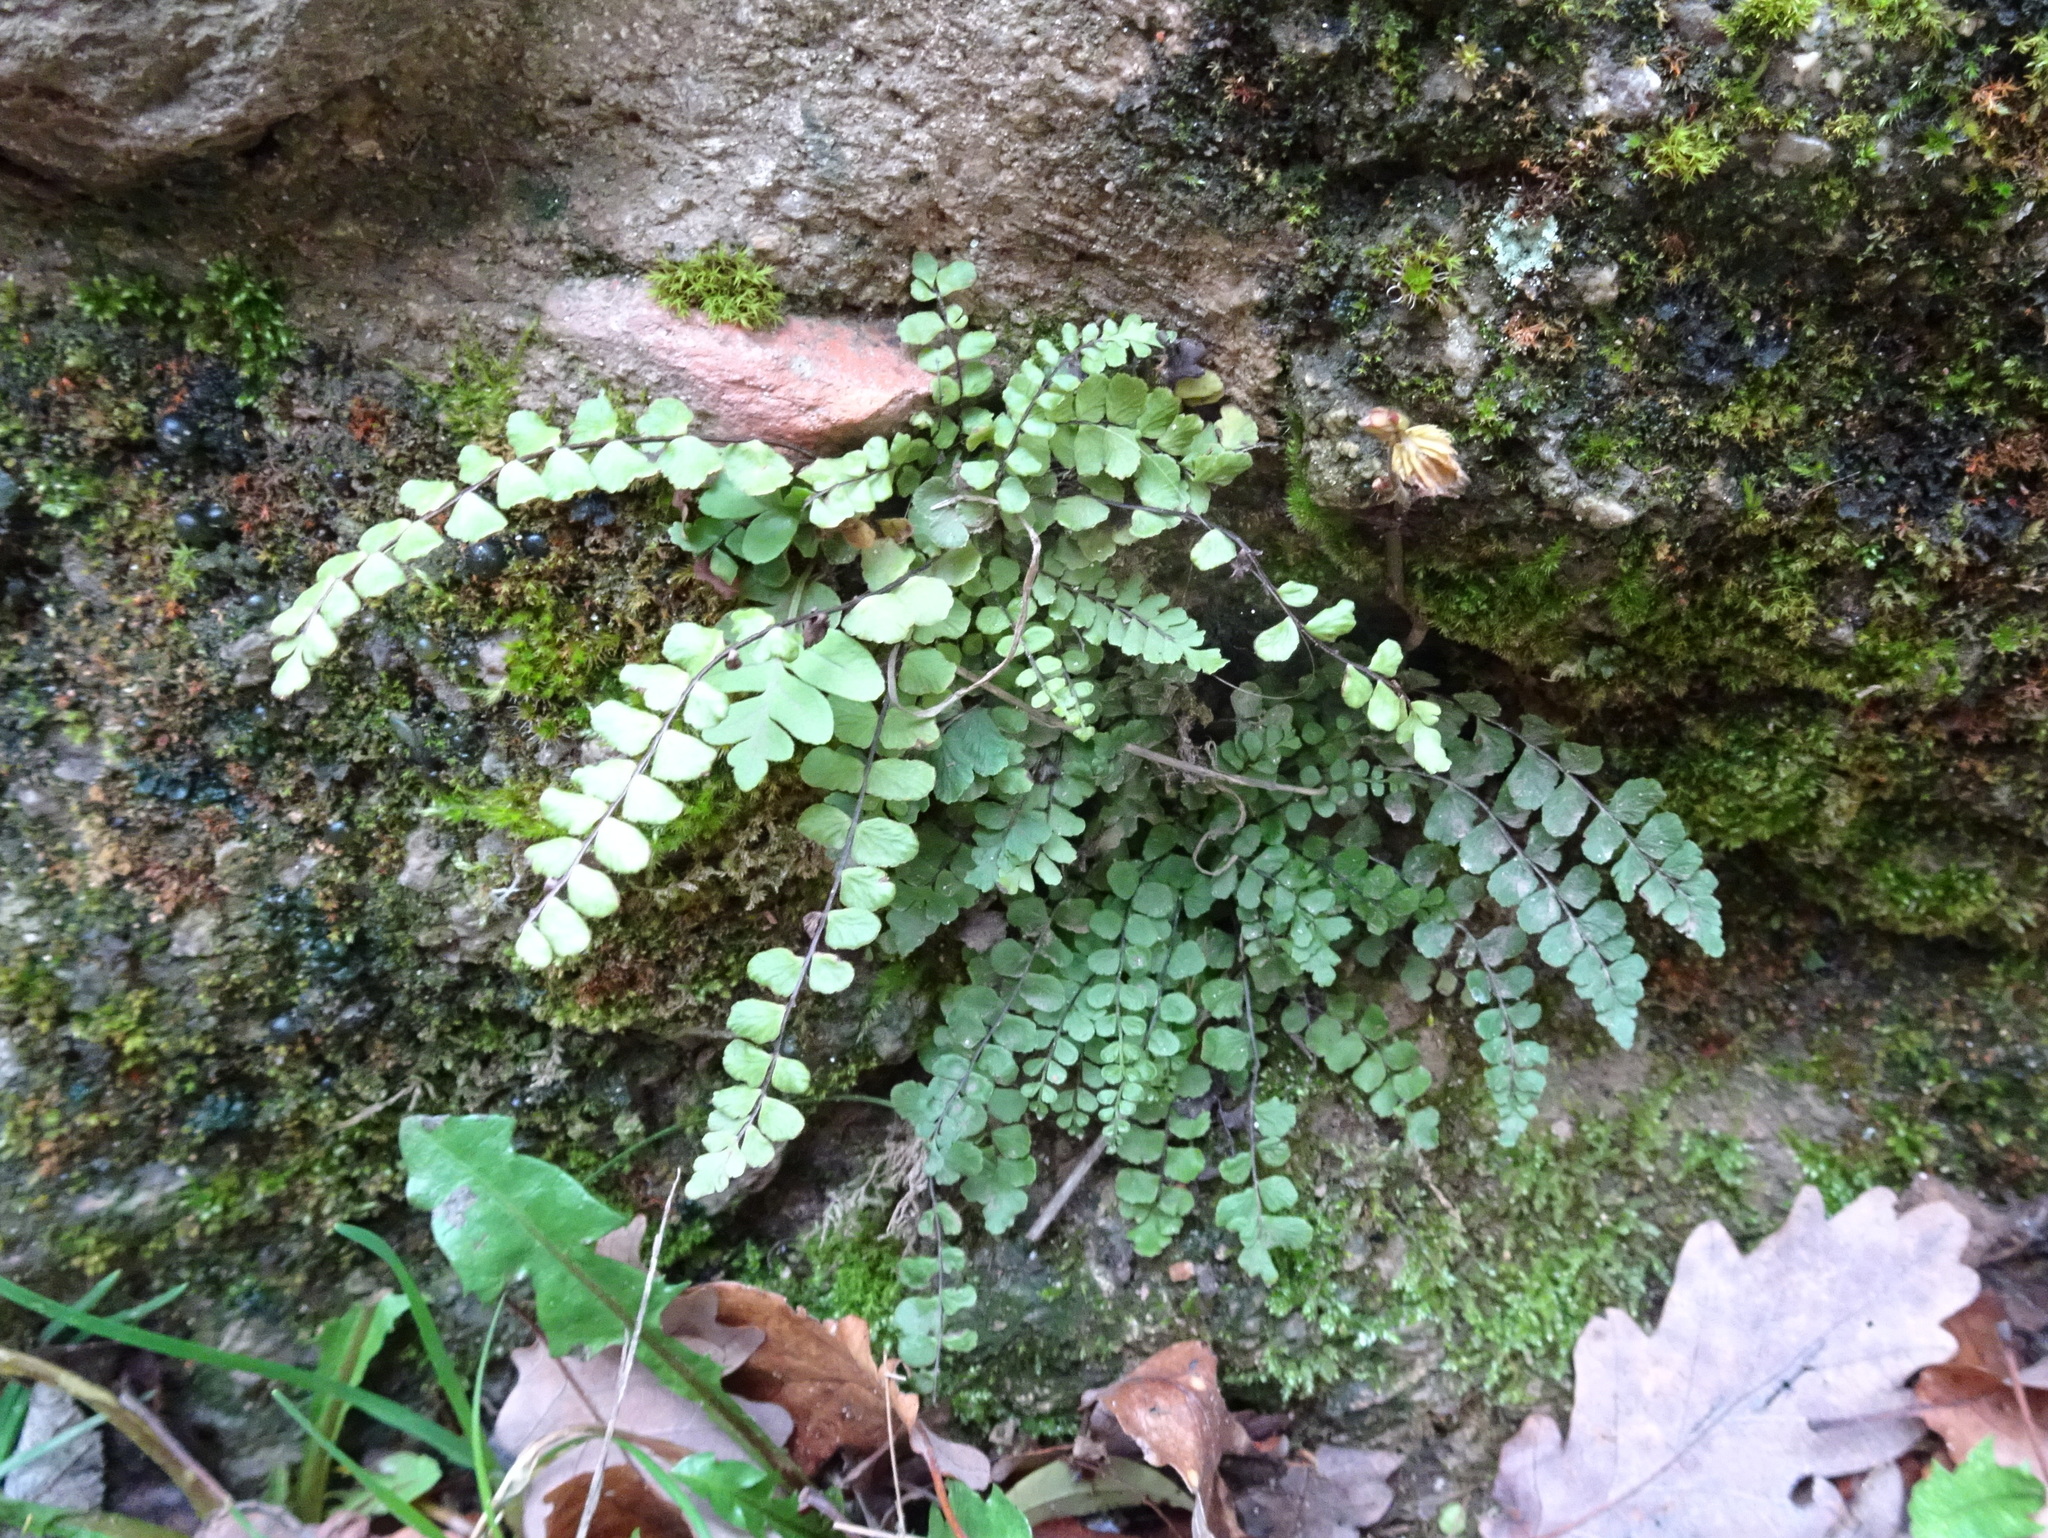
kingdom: Plantae
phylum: Tracheophyta
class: Polypodiopsida
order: Polypodiales
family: Aspleniaceae
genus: Asplenium
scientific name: Asplenium trichomanes
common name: Maidenhair spleenwort
